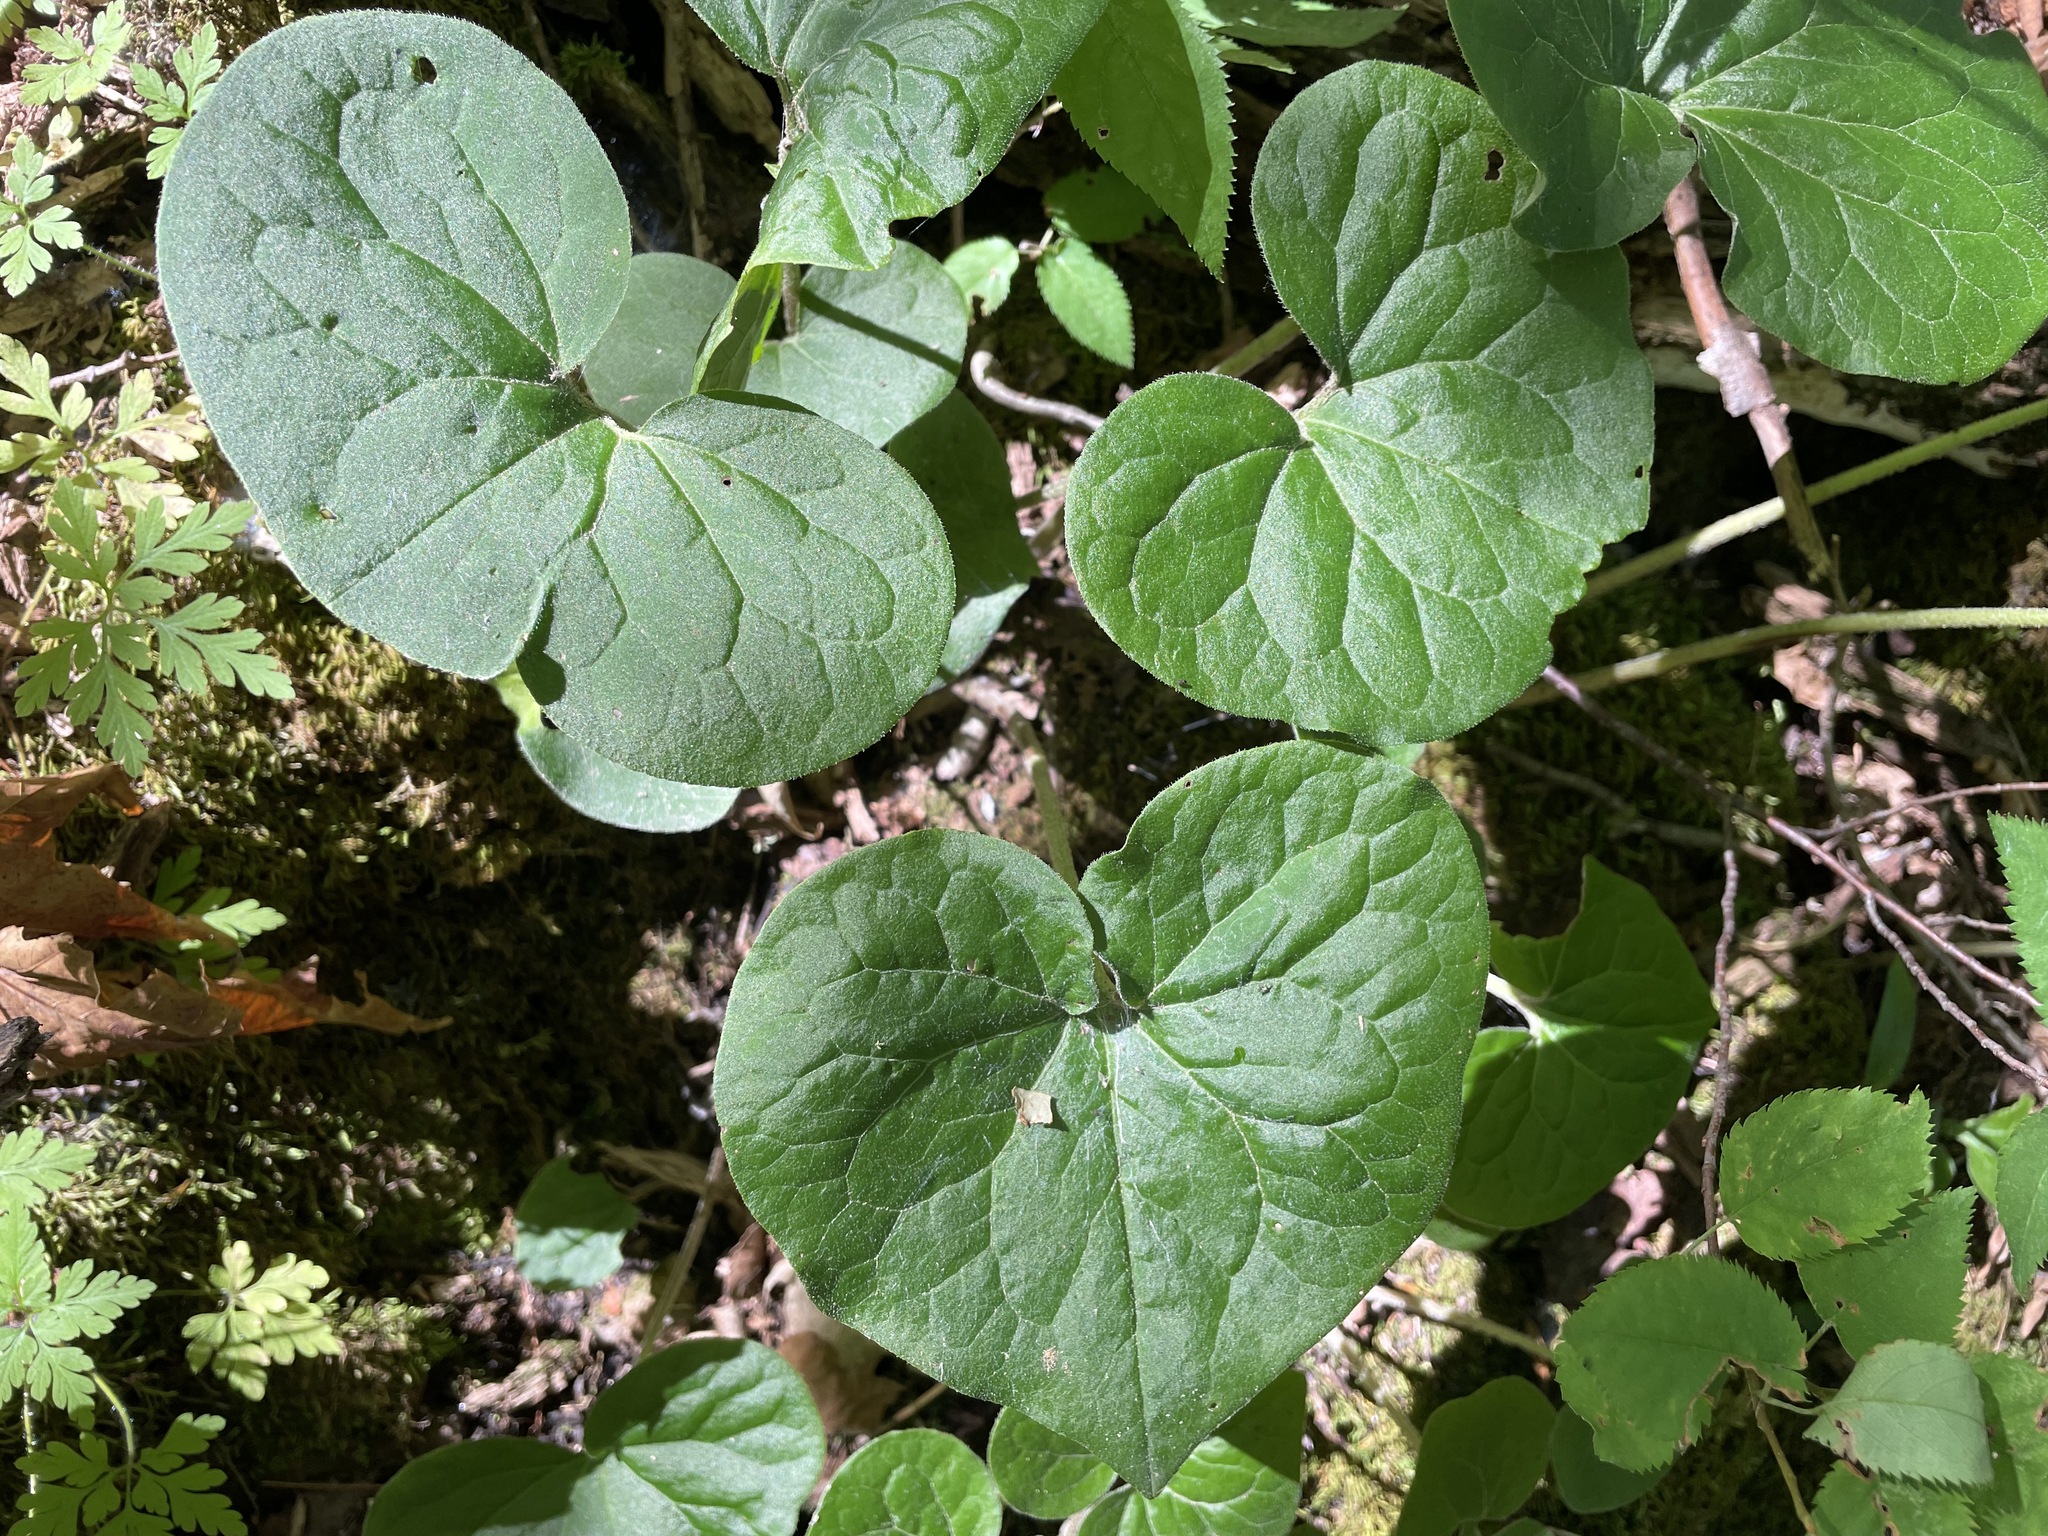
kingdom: Plantae
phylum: Tracheophyta
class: Magnoliopsida
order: Piperales
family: Aristolochiaceae
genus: Asarum
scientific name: Asarum canadense
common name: Wild ginger
